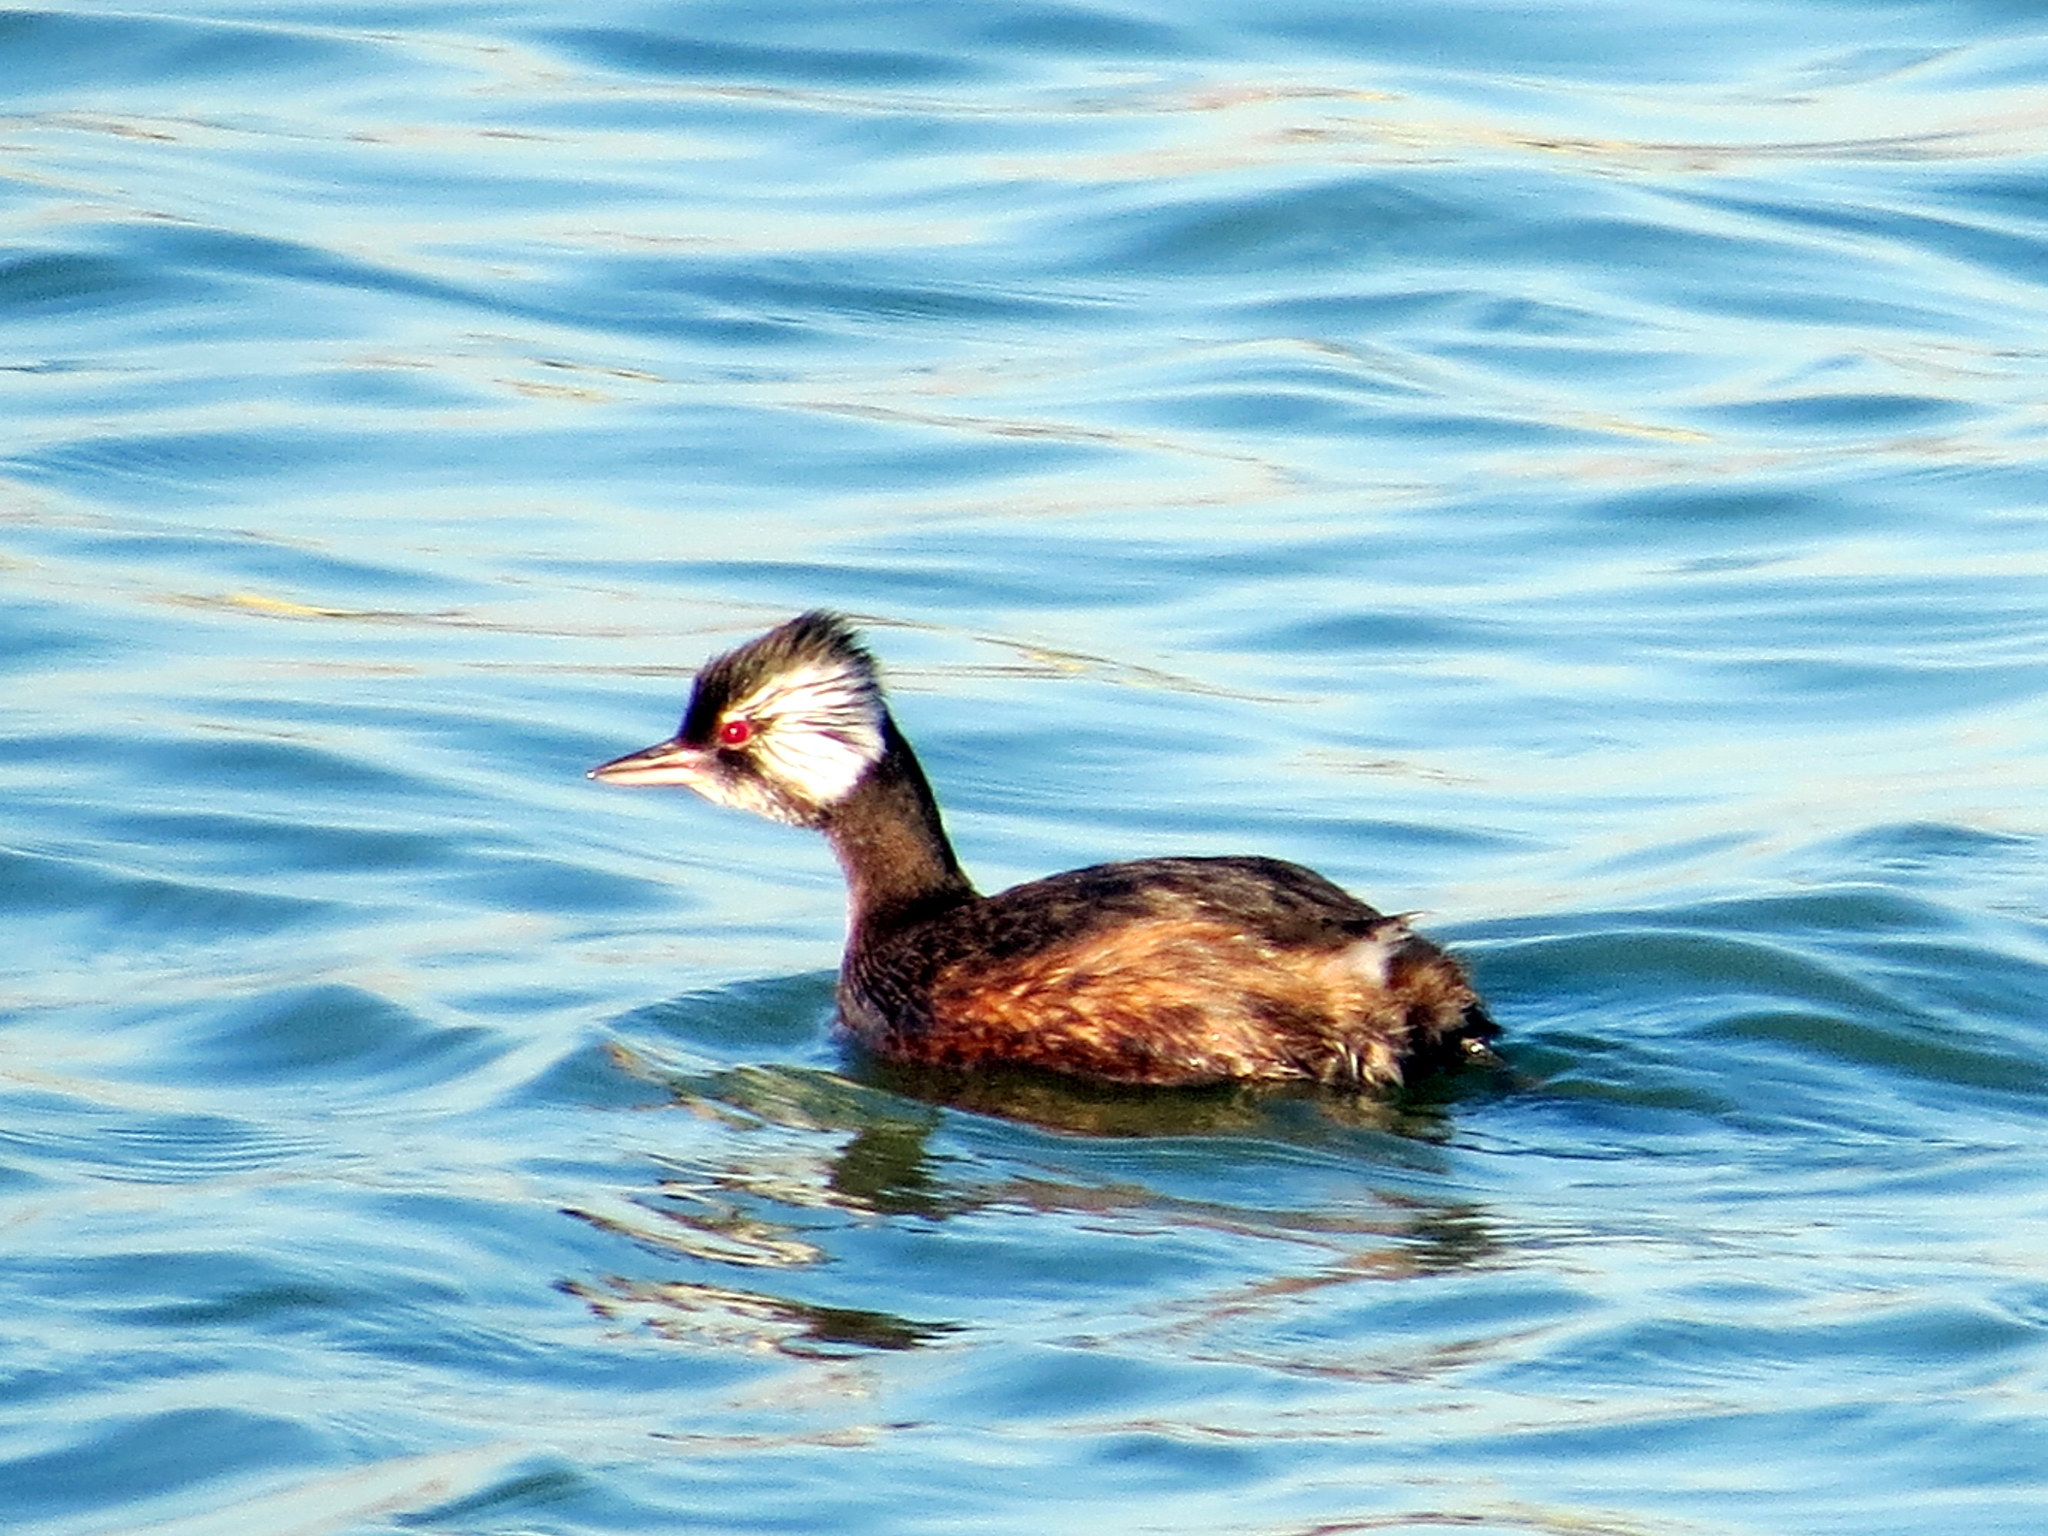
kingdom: Animalia
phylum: Chordata
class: Aves
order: Podicipediformes
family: Podicipedidae
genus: Rollandia
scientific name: Rollandia rolland
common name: White-tufted grebe
